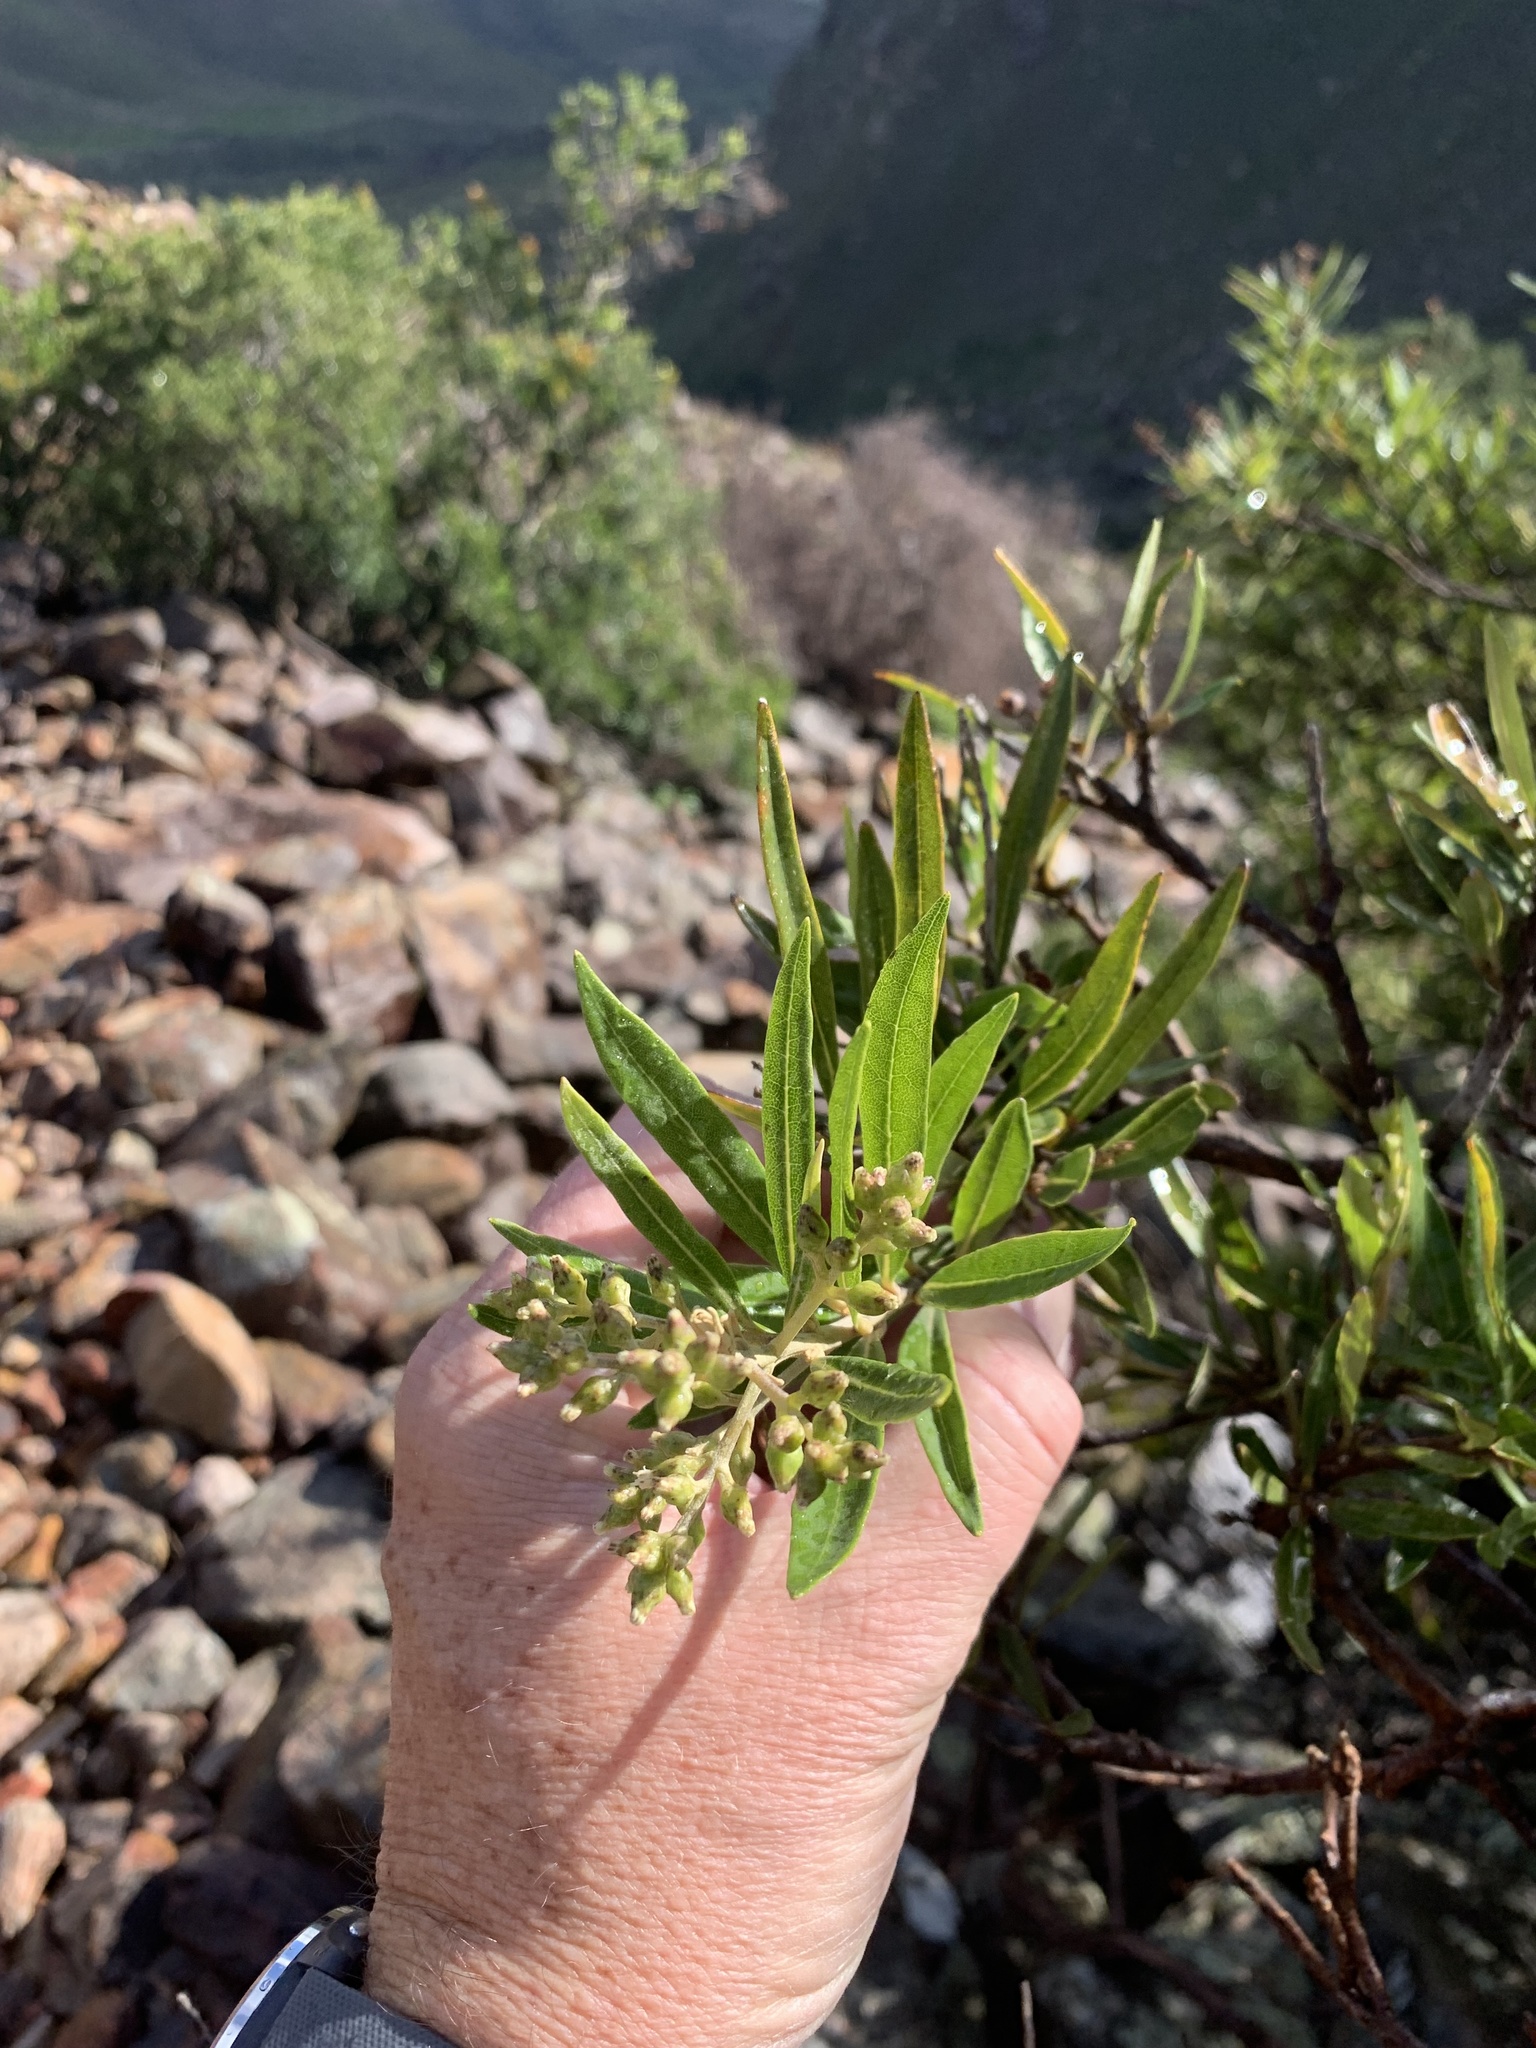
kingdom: Plantae
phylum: Tracheophyta
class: Magnoliopsida
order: Asterales
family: Asteraceae
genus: Brachylaena
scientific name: Brachylaena neriifolia
